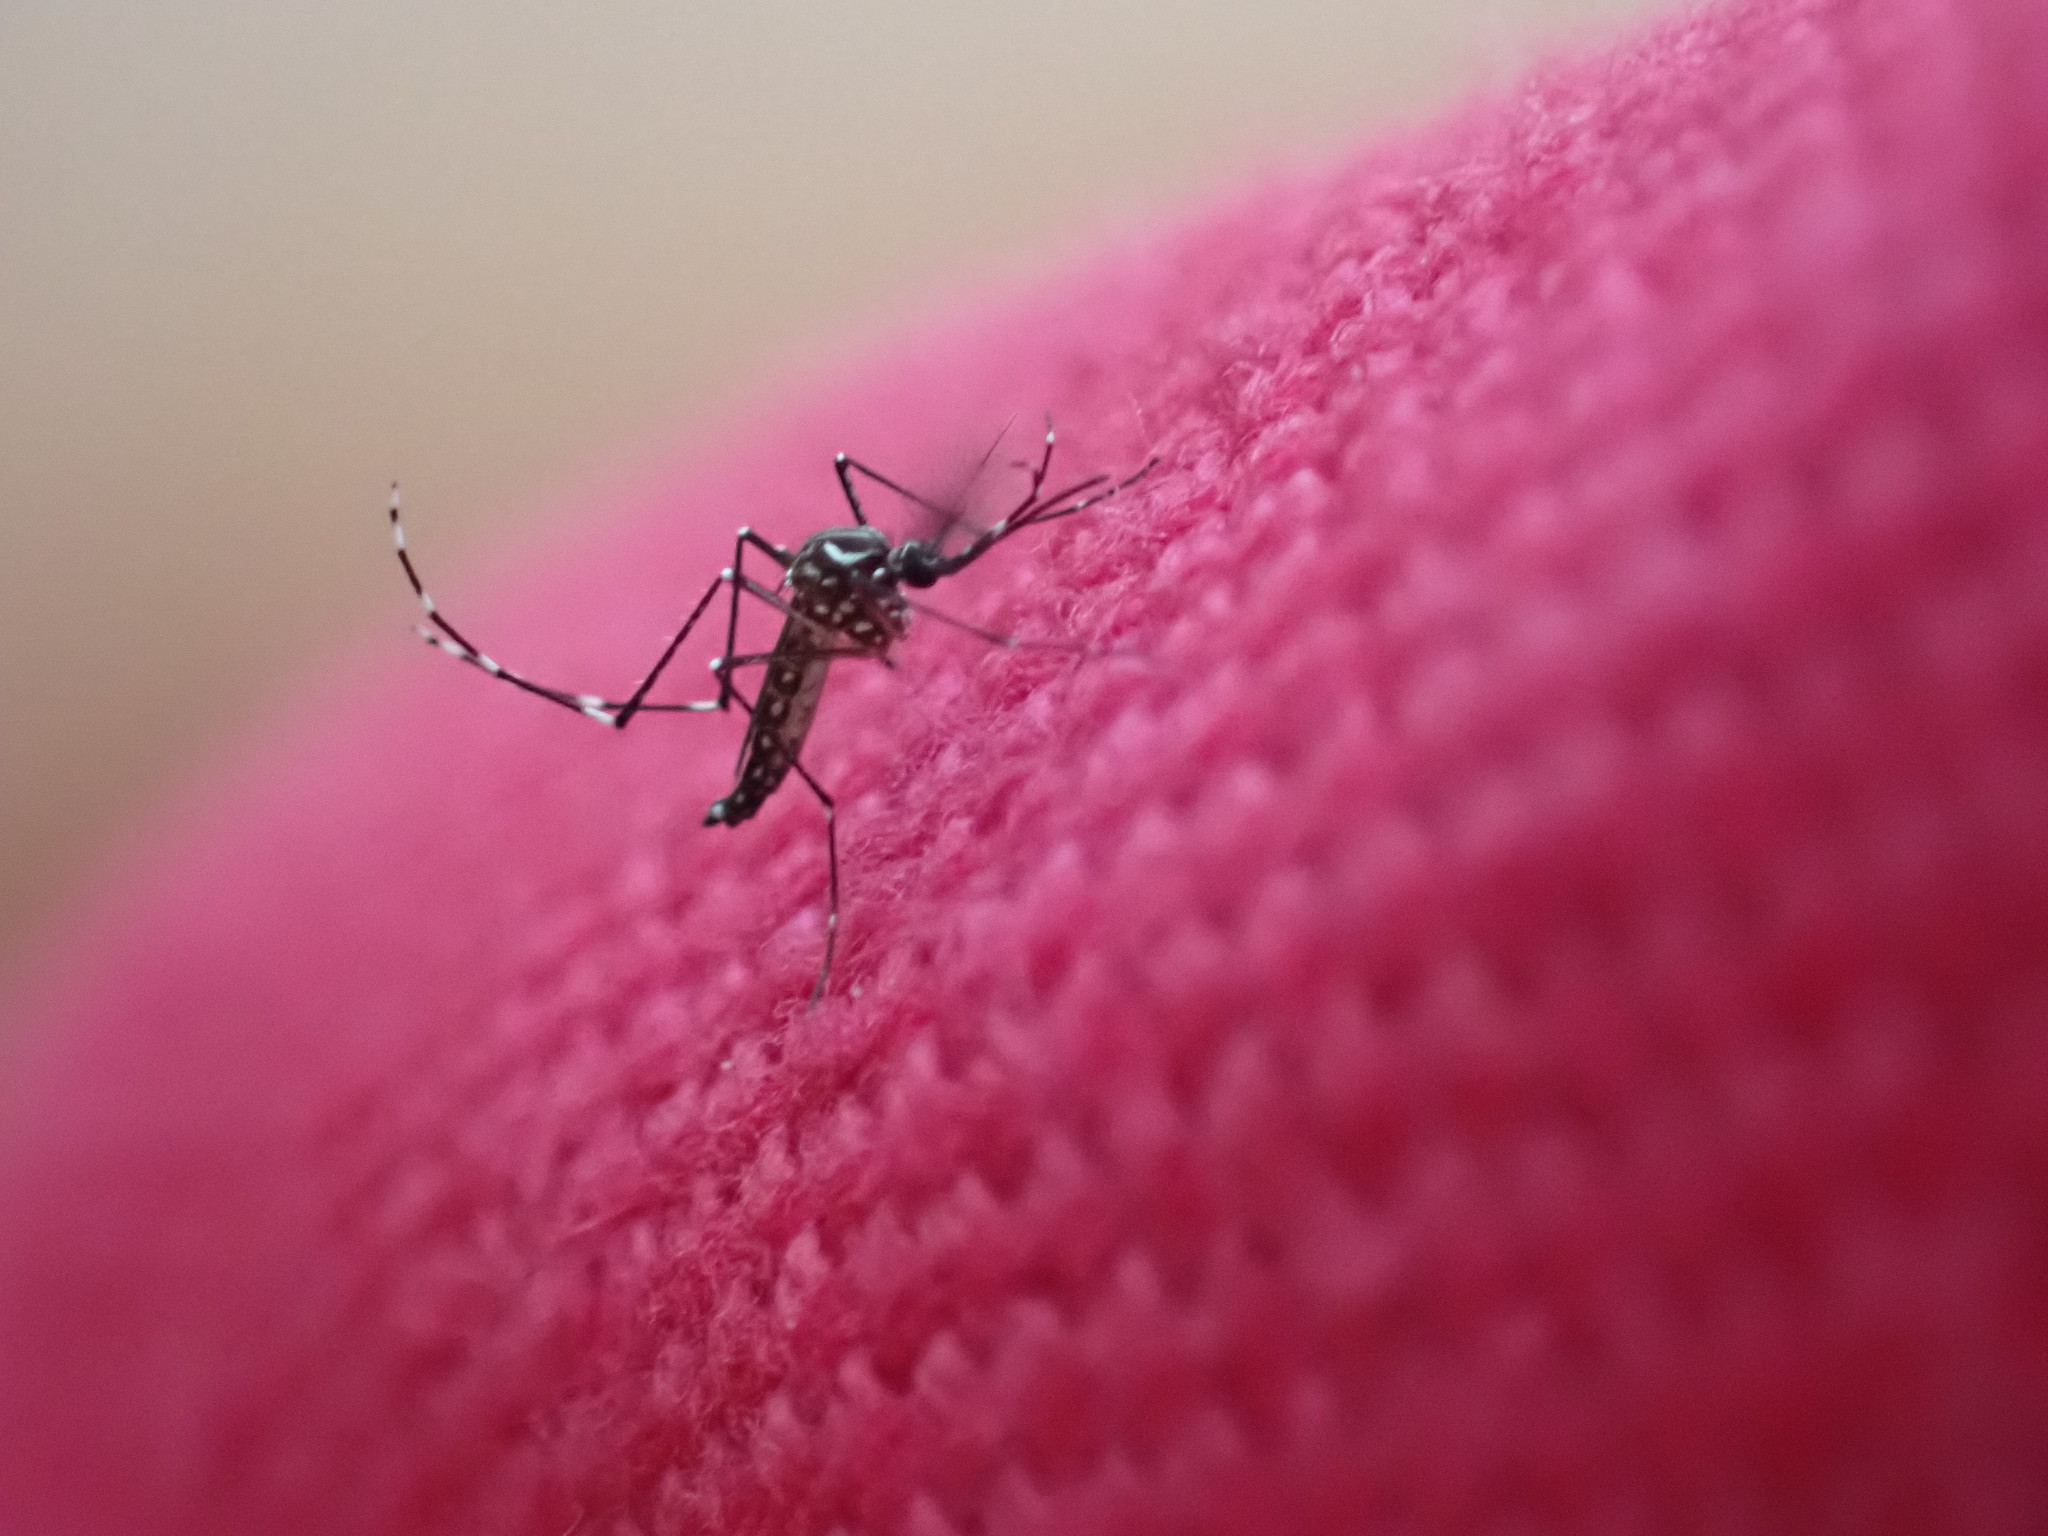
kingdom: Animalia
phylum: Arthropoda
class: Insecta
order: Diptera
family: Culicidae
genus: Aedes
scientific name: Aedes aegypti
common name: Yellow fever mosquito
